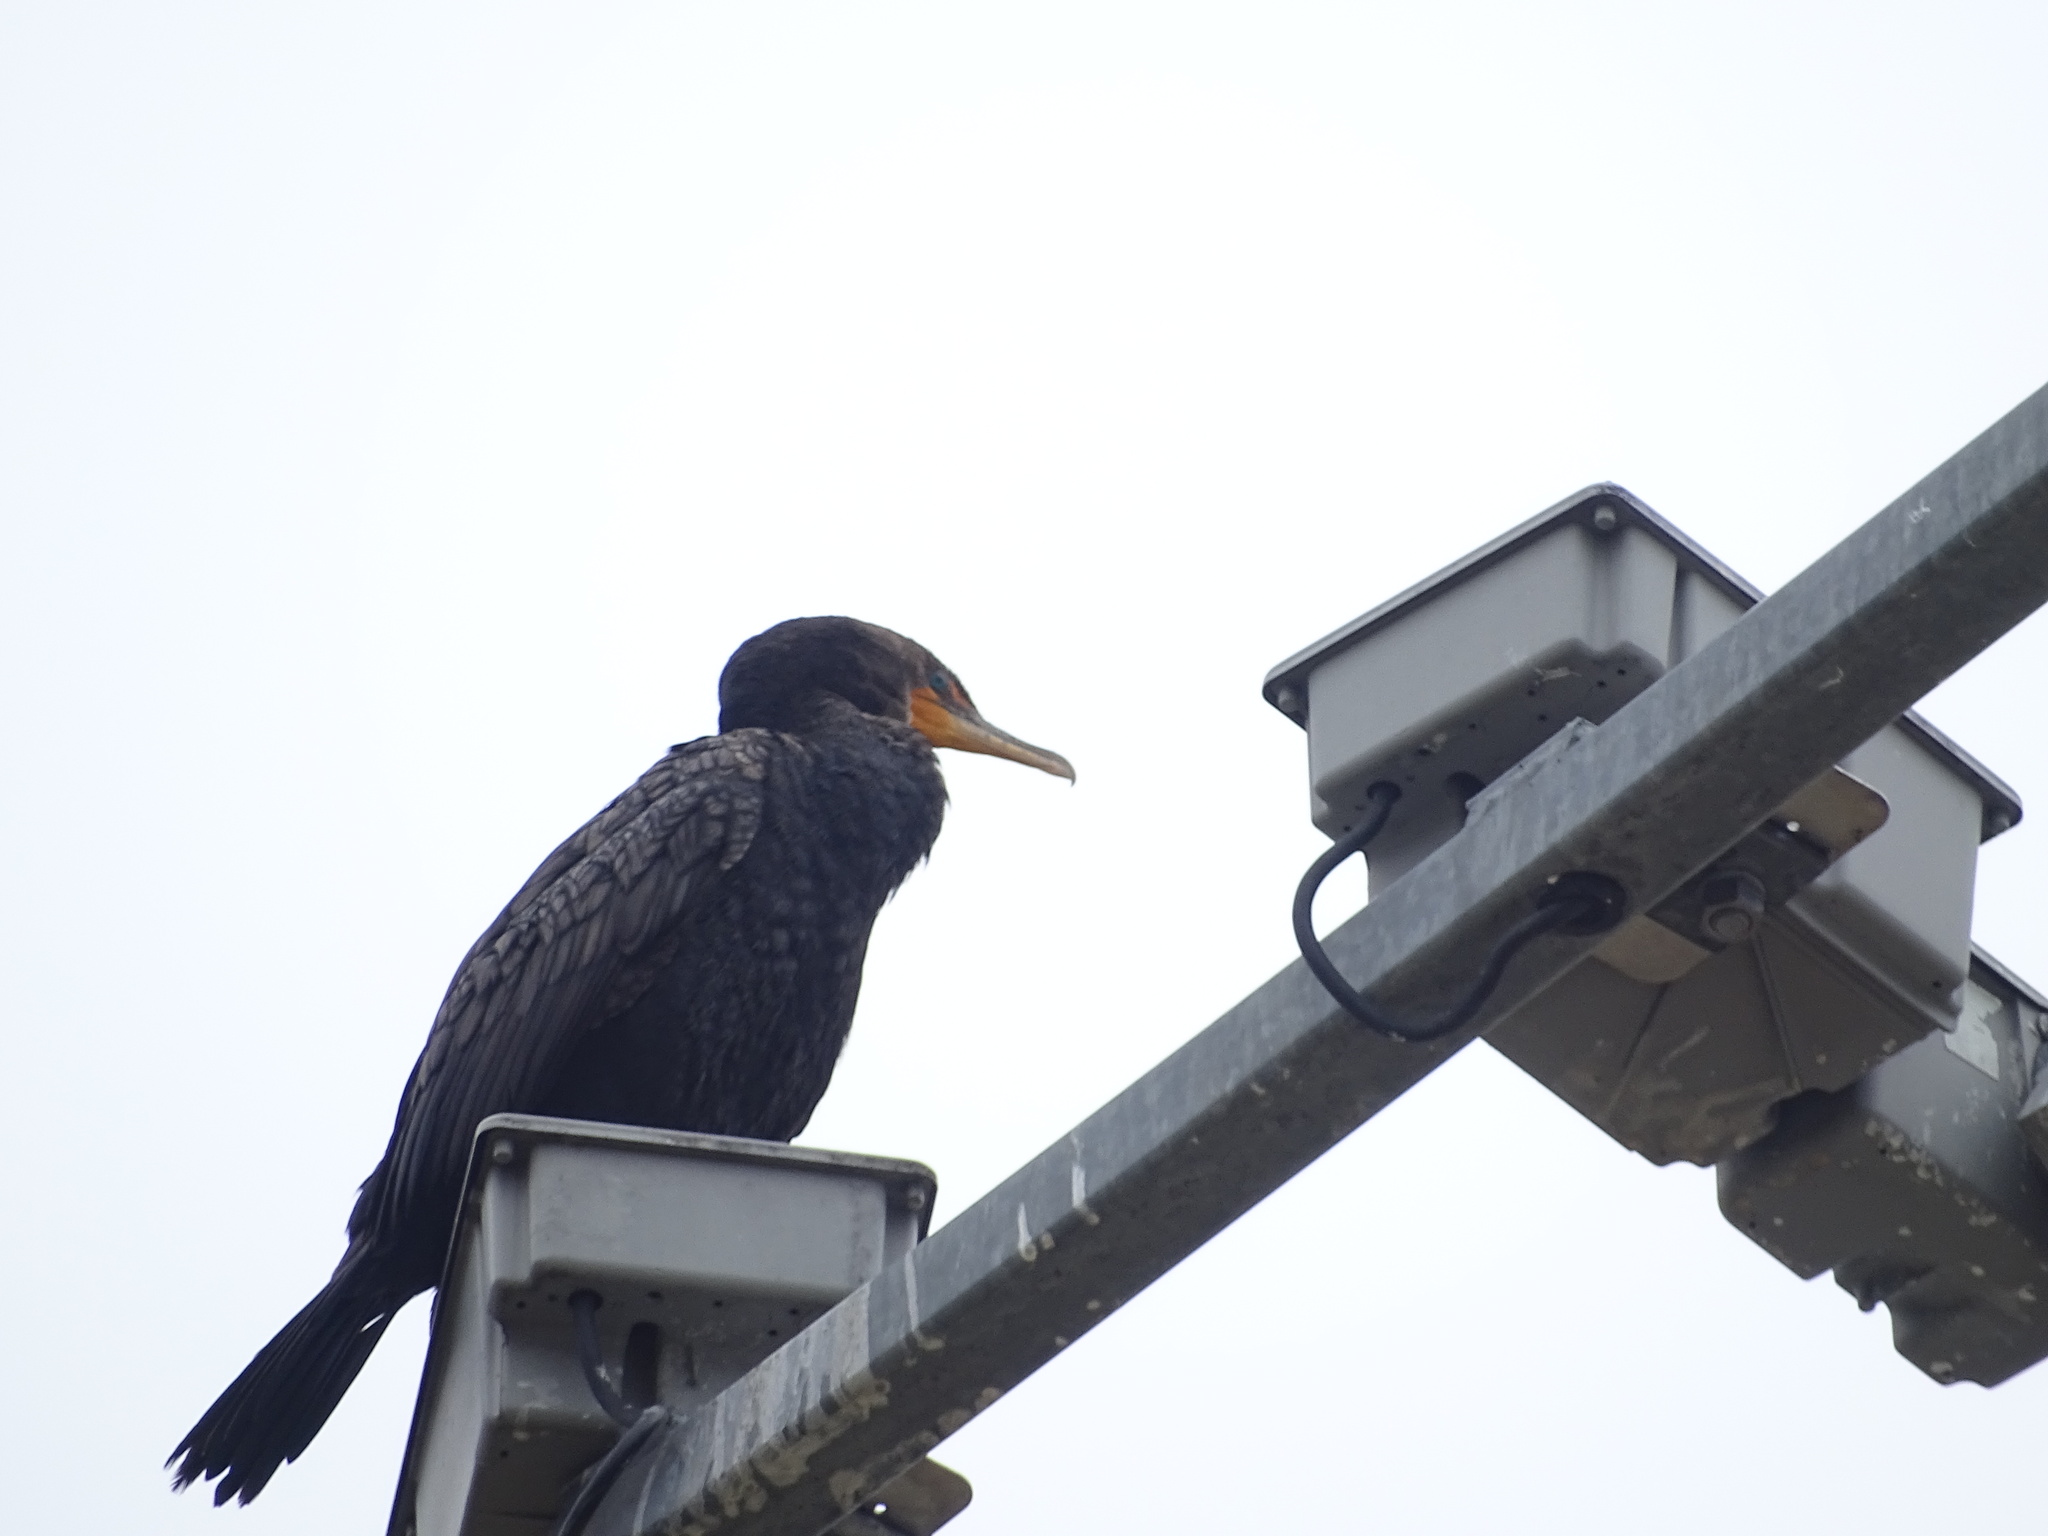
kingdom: Animalia
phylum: Chordata
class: Aves
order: Suliformes
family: Phalacrocoracidae
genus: Phalacrocorax
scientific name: Phalacrocorax auritus
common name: Double-crested cormorant
